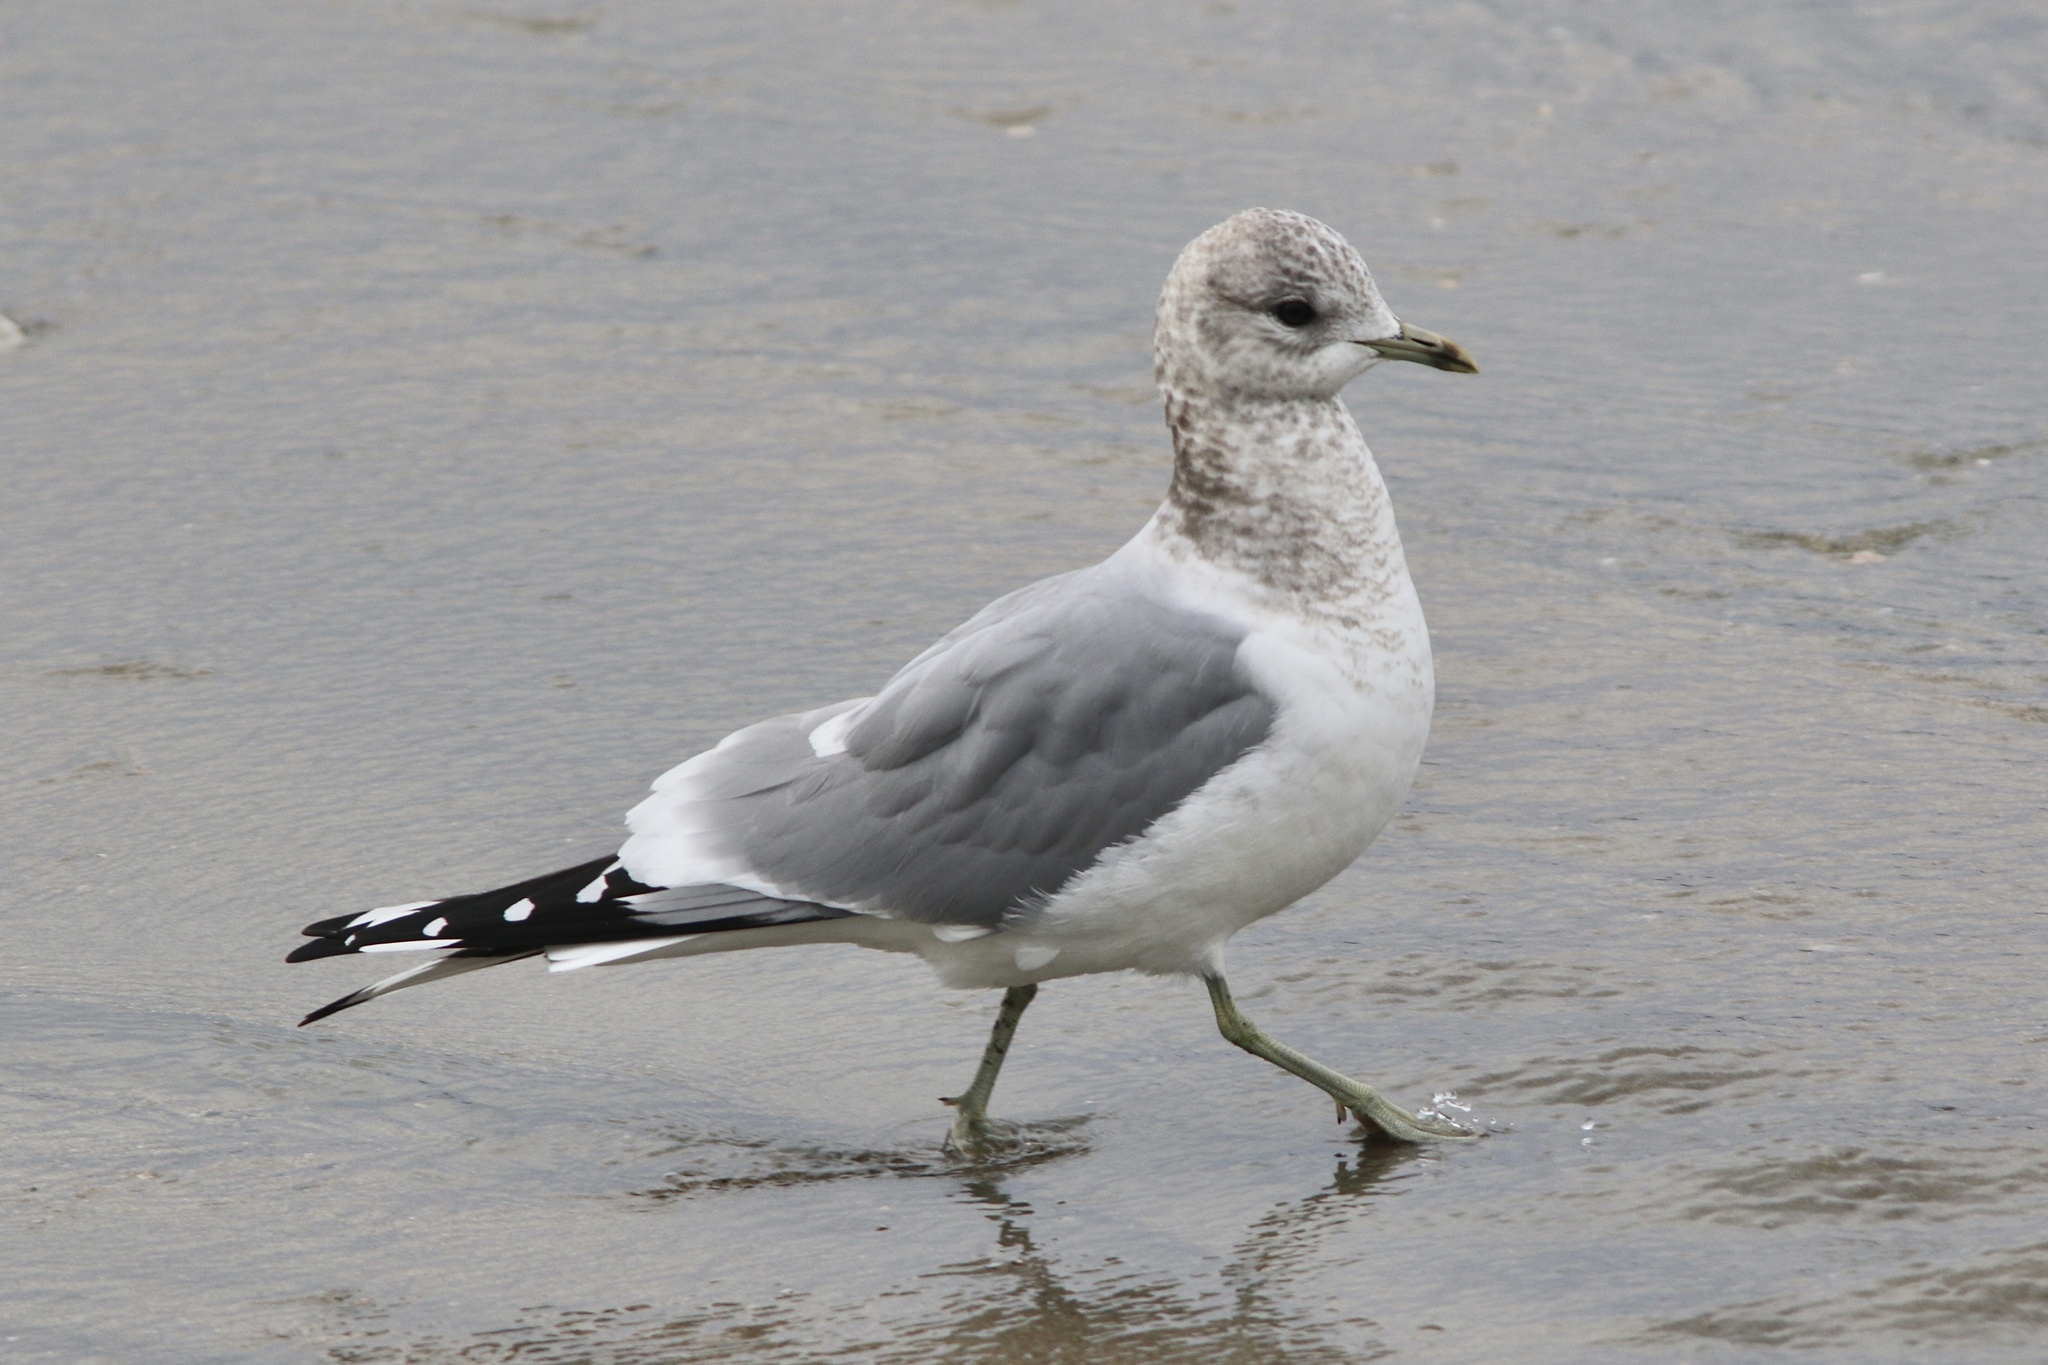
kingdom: Animalia
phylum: Chordata
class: Aves
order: Charadriiformes
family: Laridae
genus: Larus
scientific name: Larus brachyrhynchus
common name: Short-billed gull
